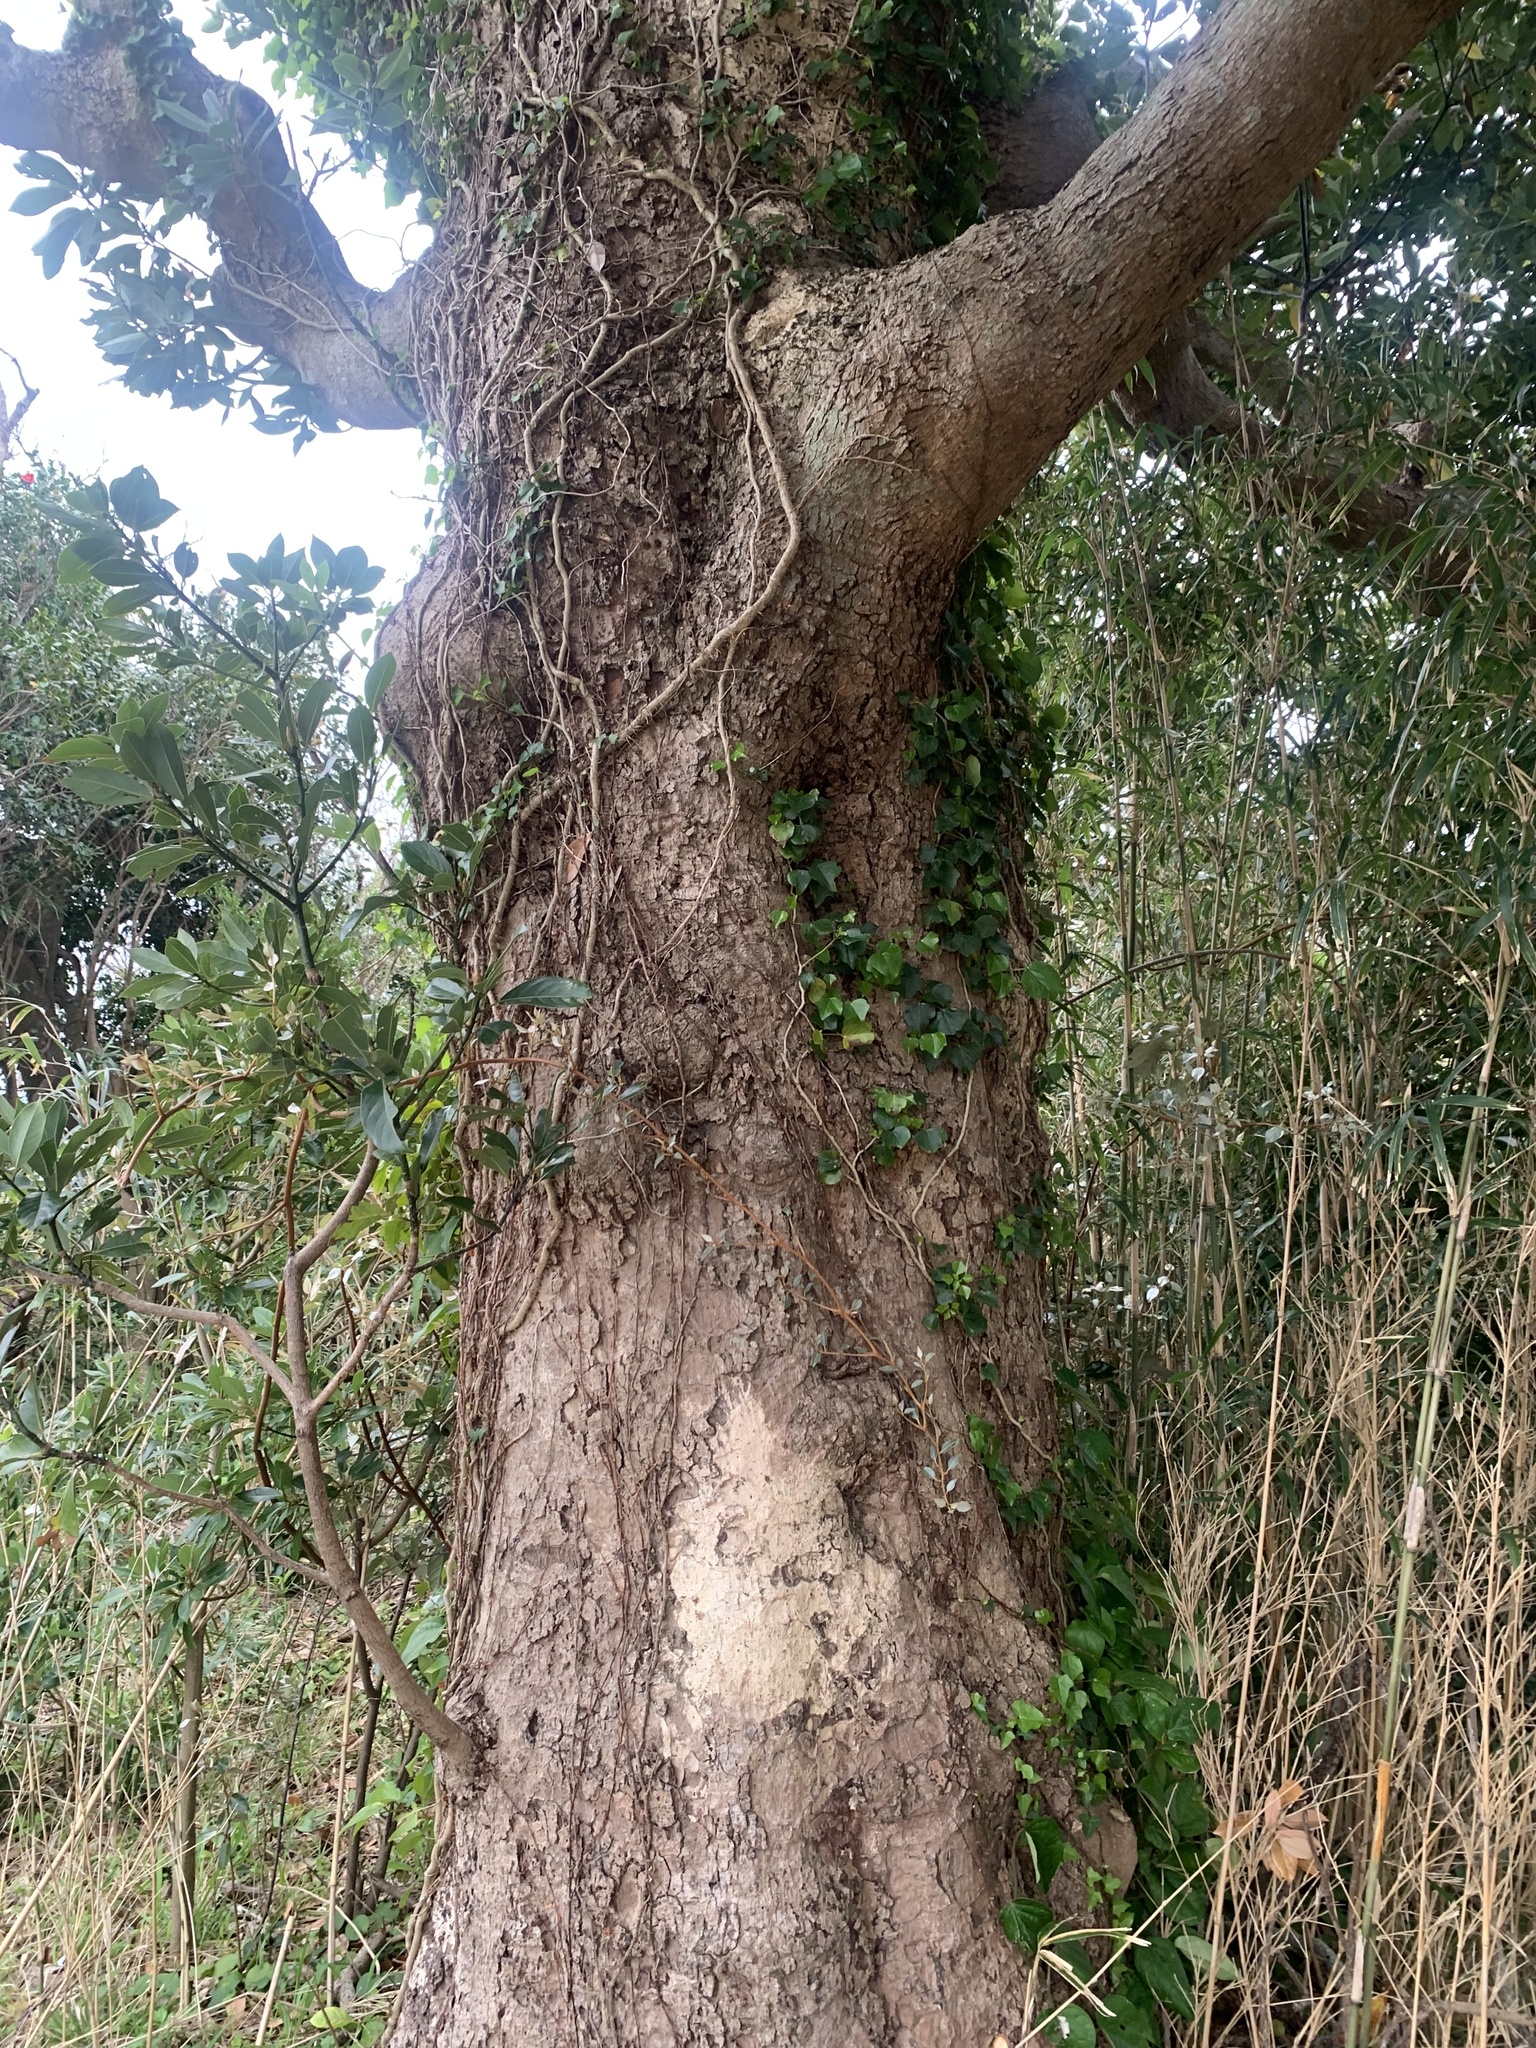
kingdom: Plantae
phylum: Tracheophyta
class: Magnoliopsida
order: Laurales
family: Lauraceae
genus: Machilus
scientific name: Machilus thunbergii
